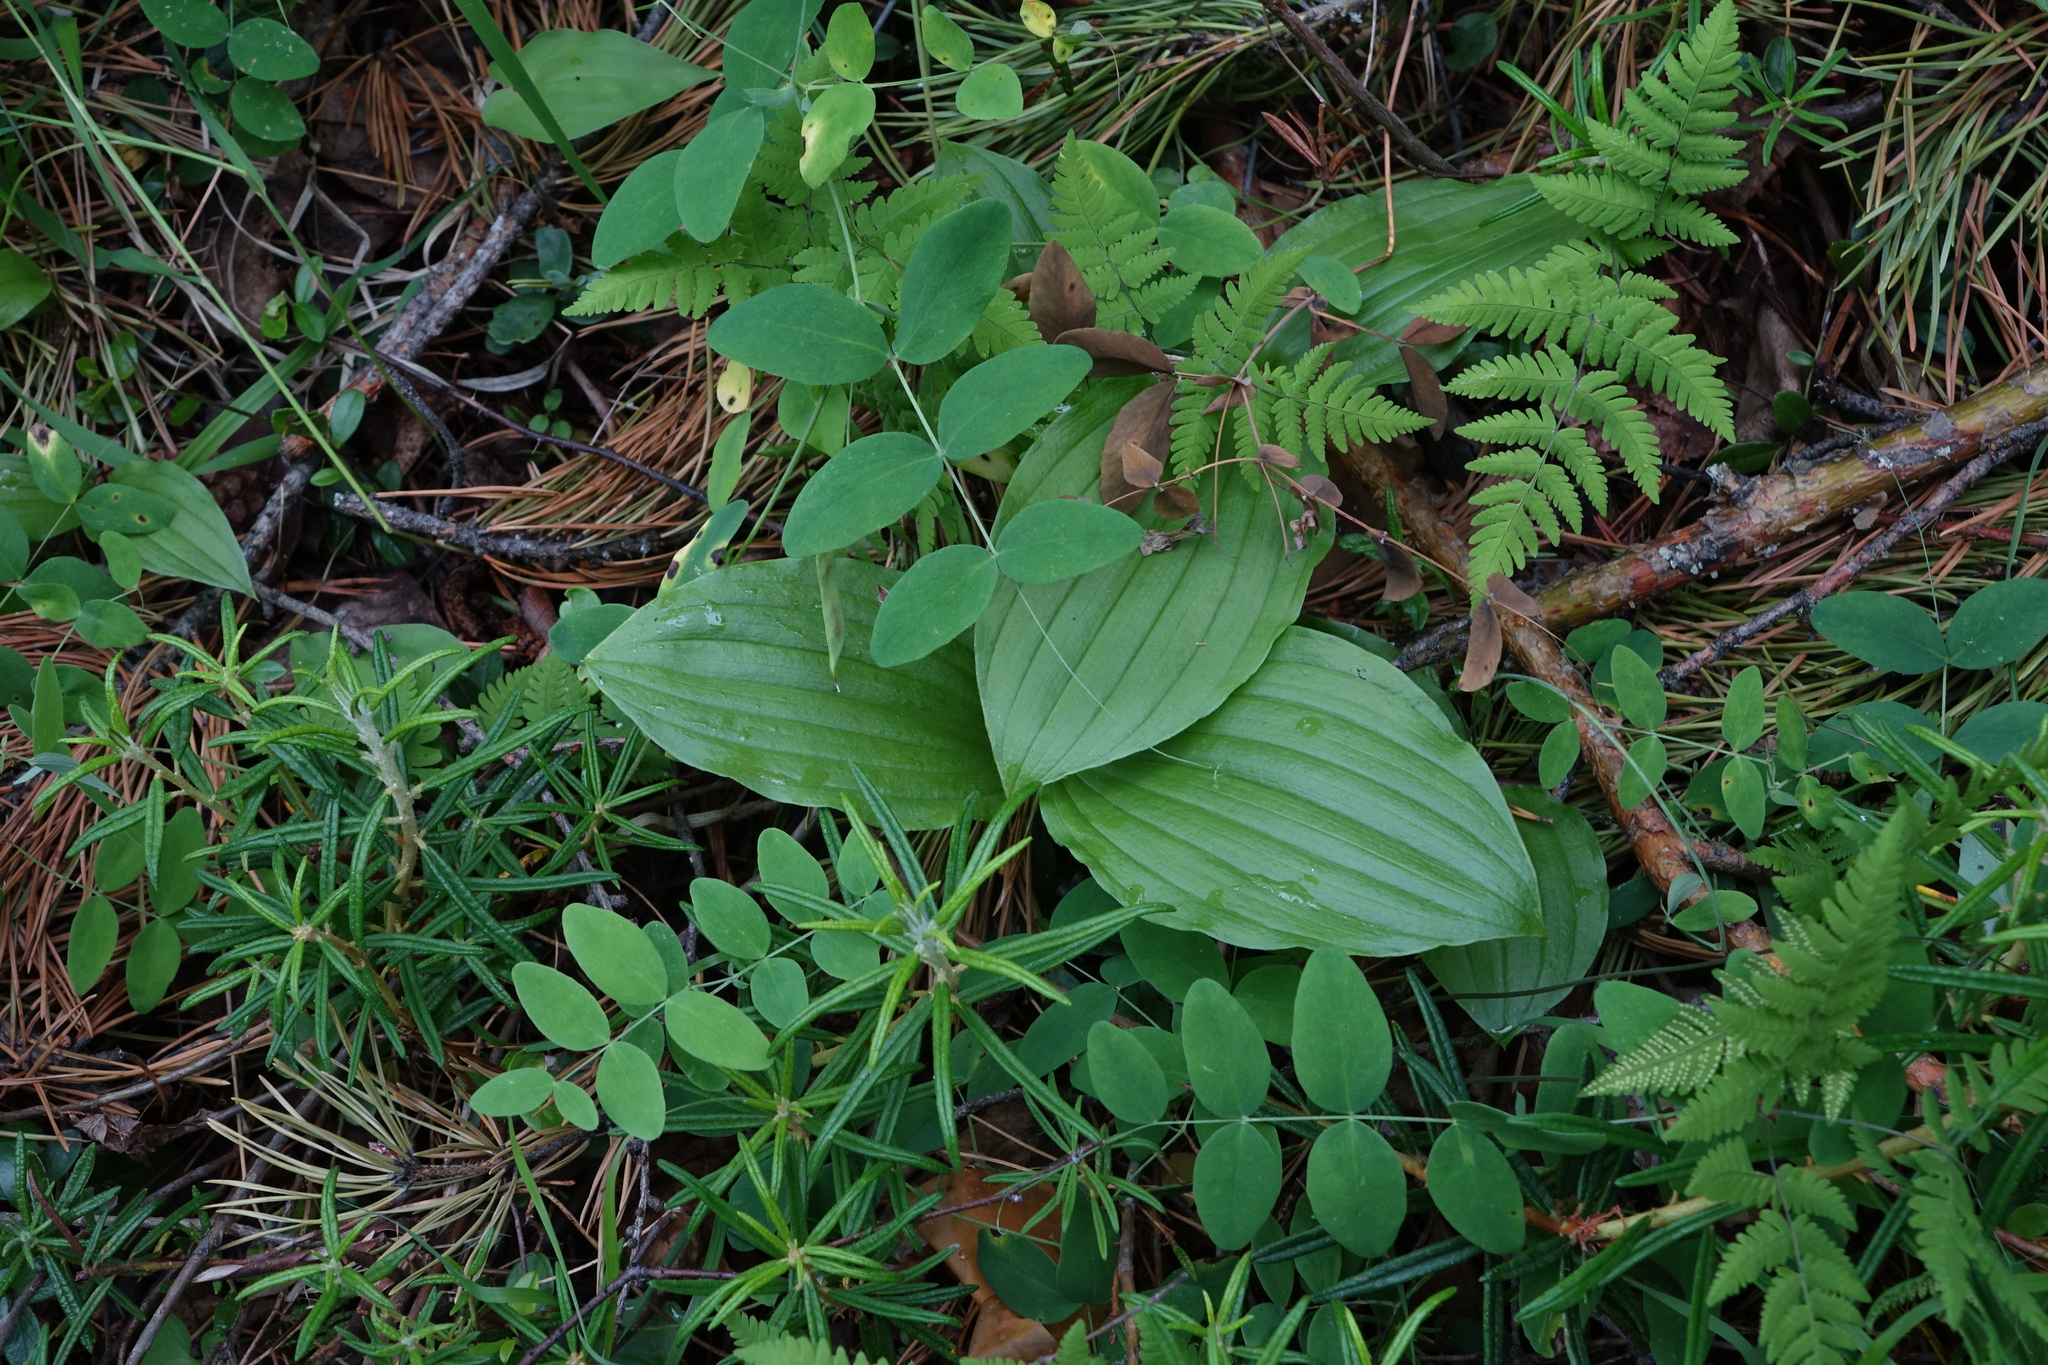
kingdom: Plantae
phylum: Tracheophyta
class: Liliopsida
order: Asparagales
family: Orchidaceae
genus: Cypripedium
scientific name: Cypripedium guttatum
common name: Pink lady slipper
